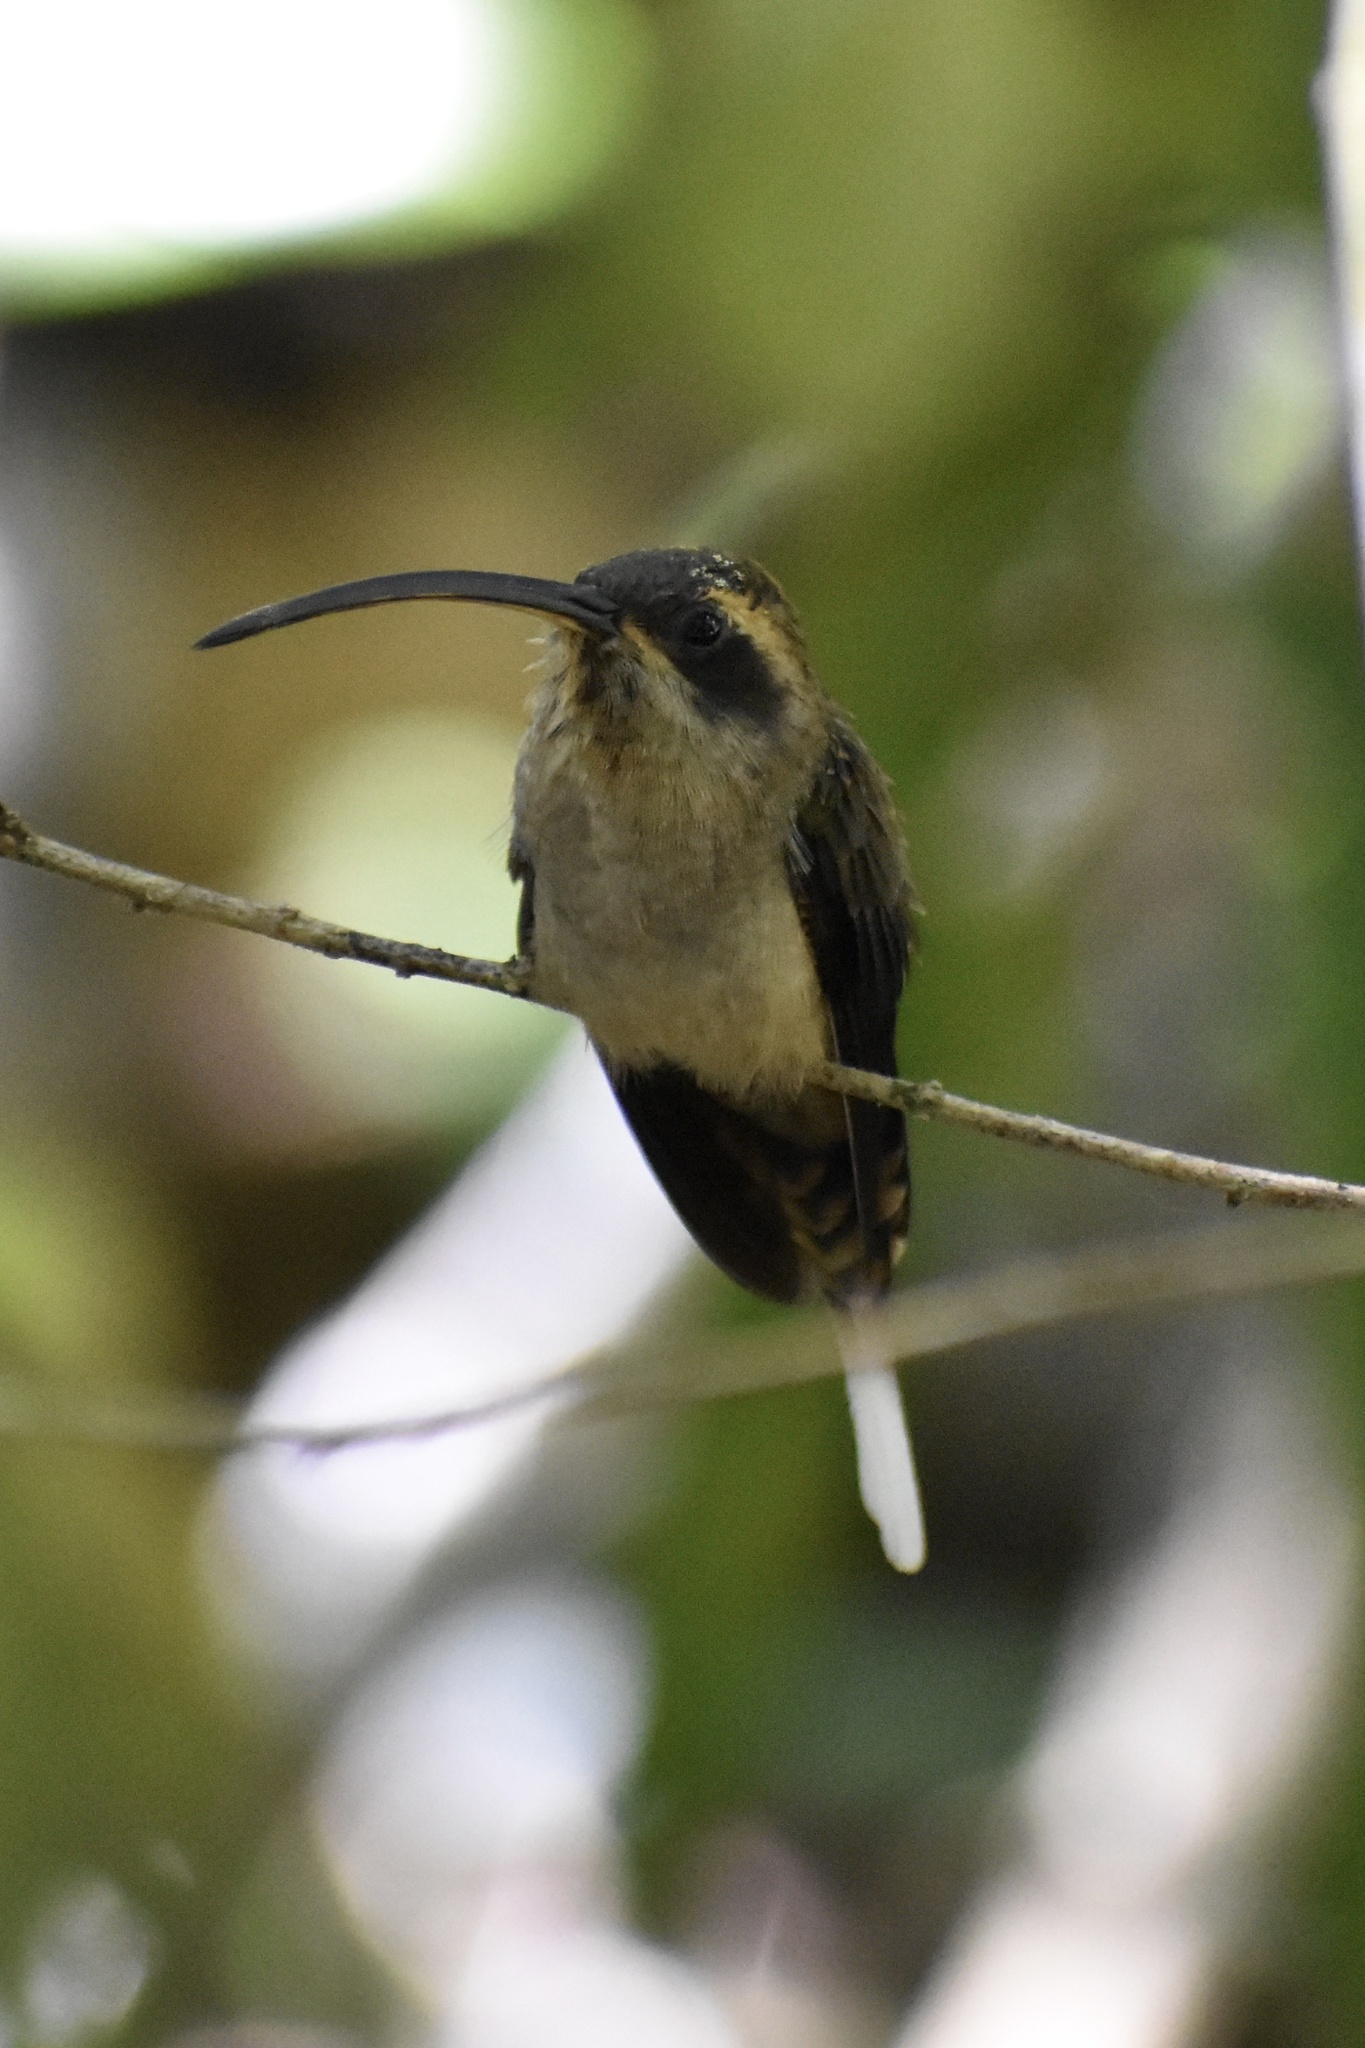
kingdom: Animalia
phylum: Chordata
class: Aves
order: Apodiformes
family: Trochilidae
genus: Phaethornis
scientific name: Phaethornis longirostris
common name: Long-billed hermit
